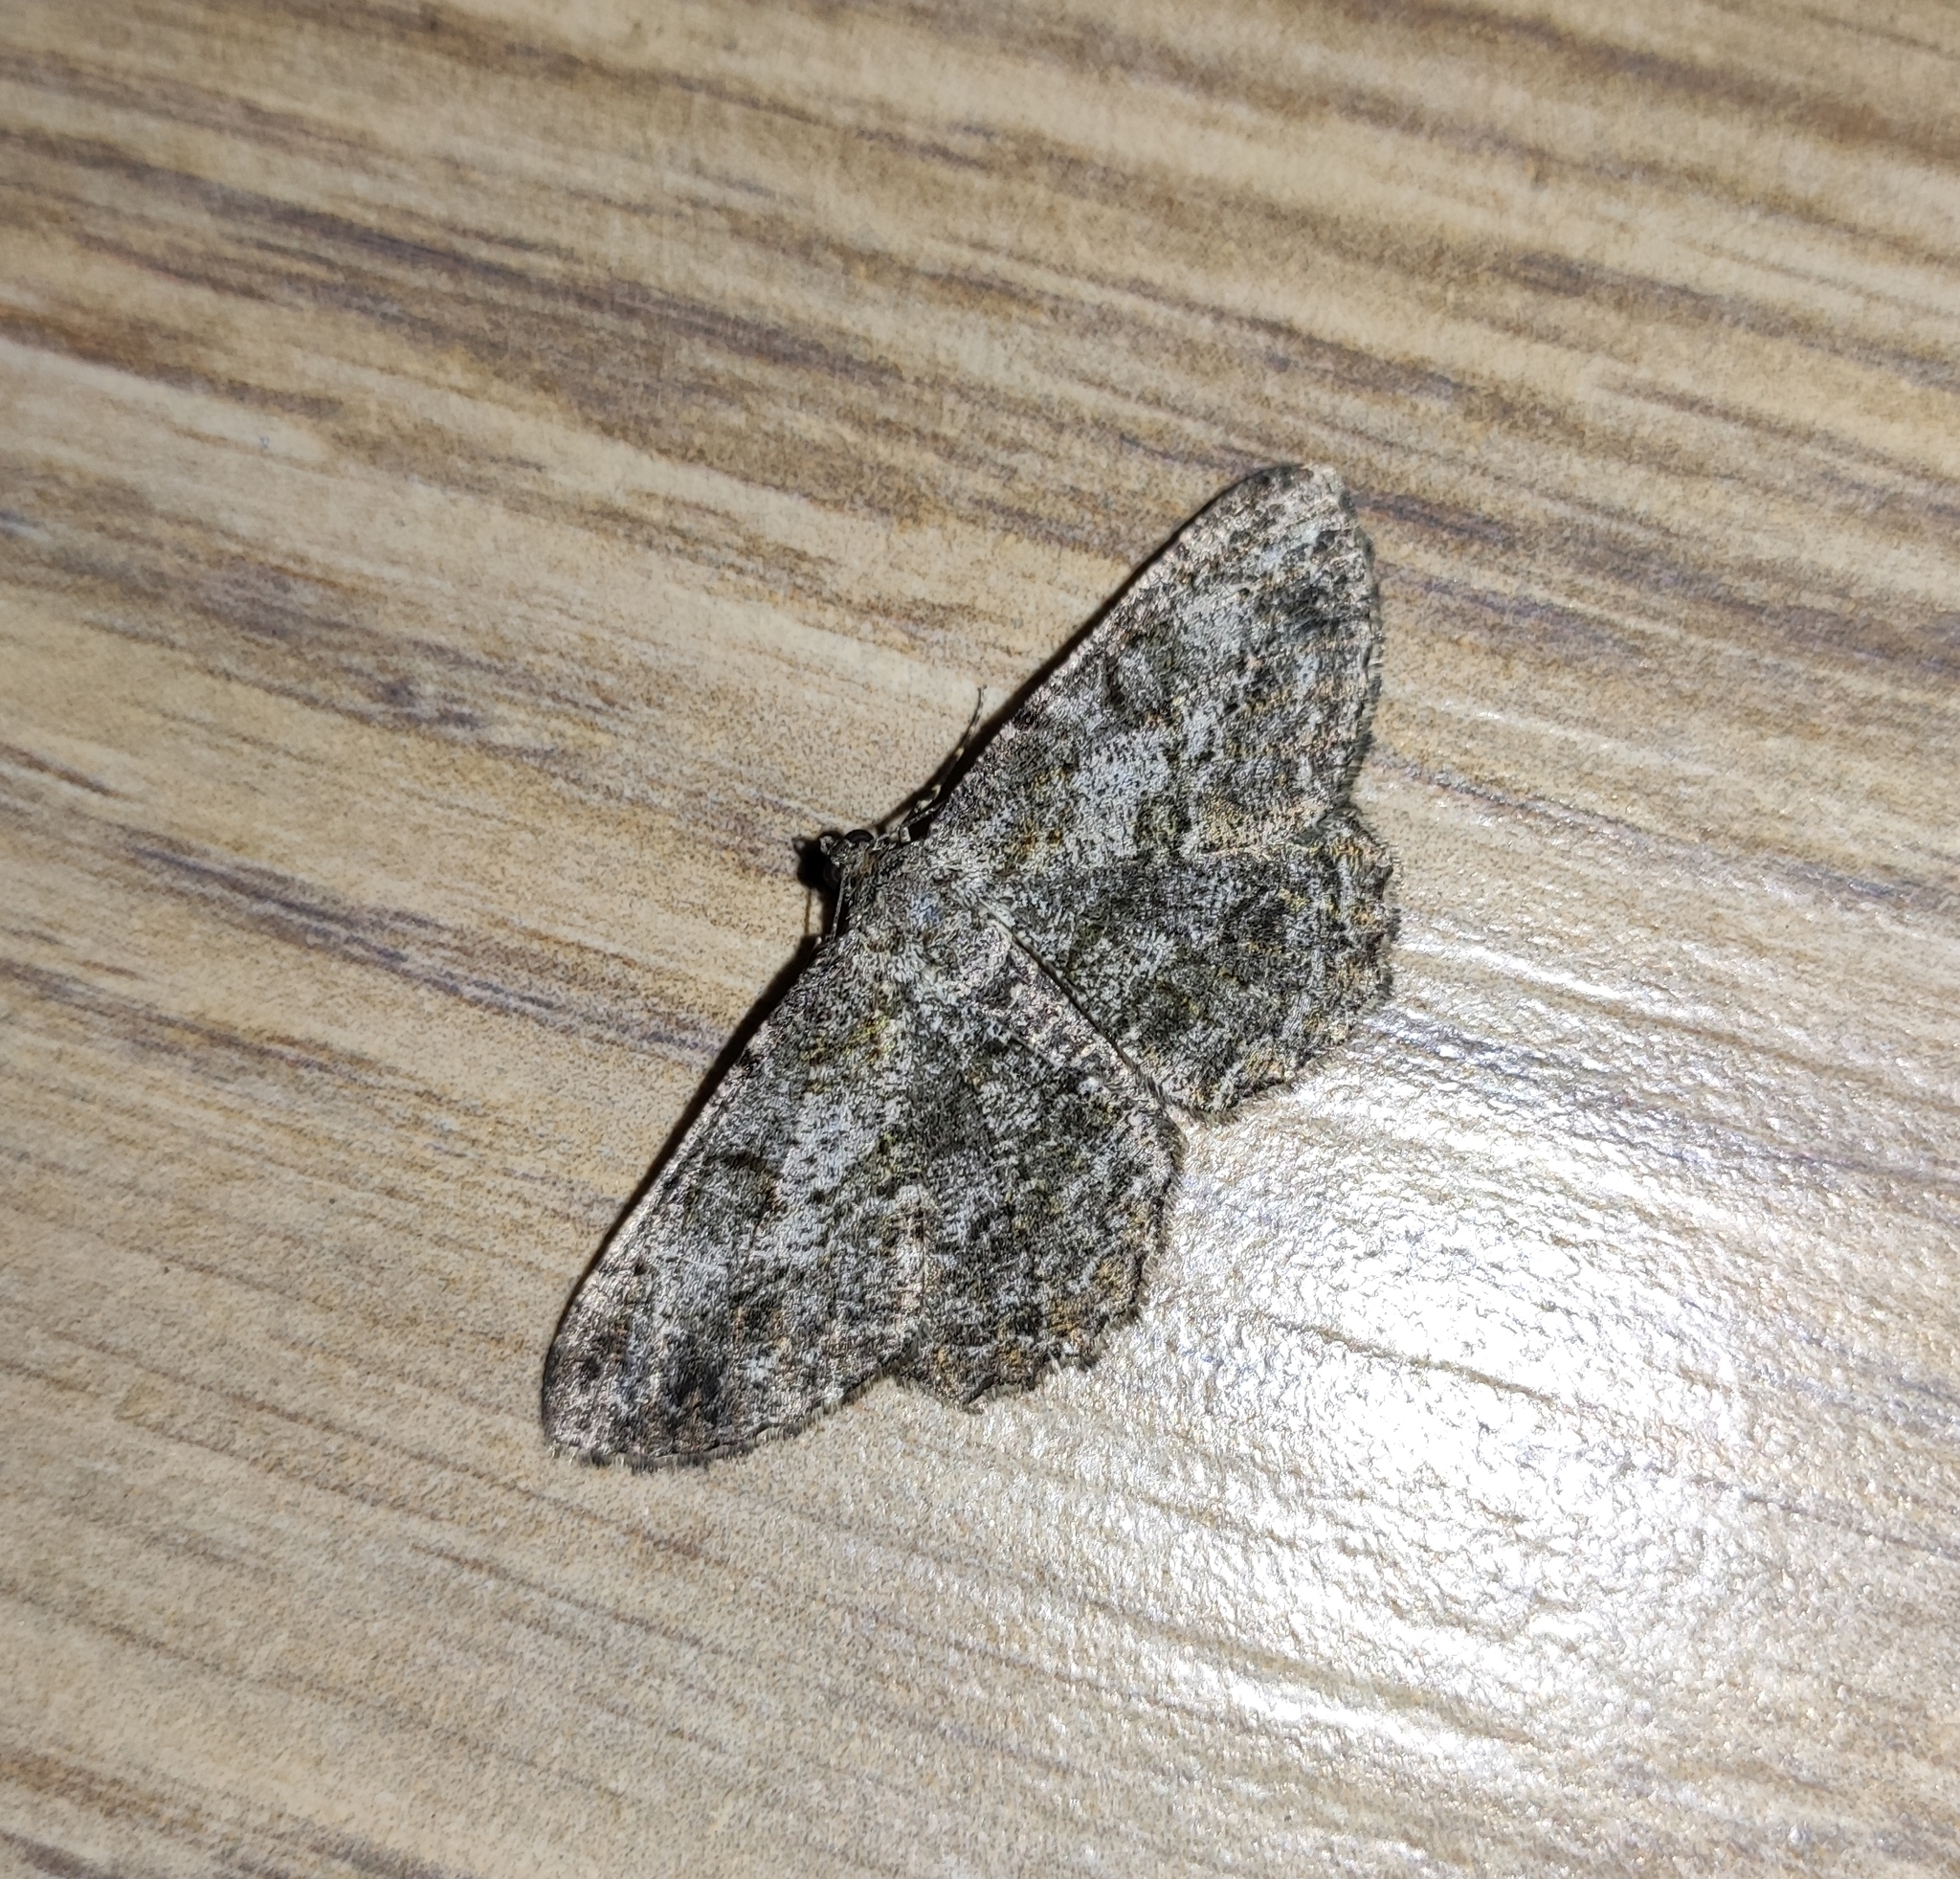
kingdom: Animalia
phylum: Arthropoda
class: Insecta
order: Lepidoptera
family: Geometridae
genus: Peribatodes
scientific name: Peribatodes rhomboidaria
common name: Willow beauty
